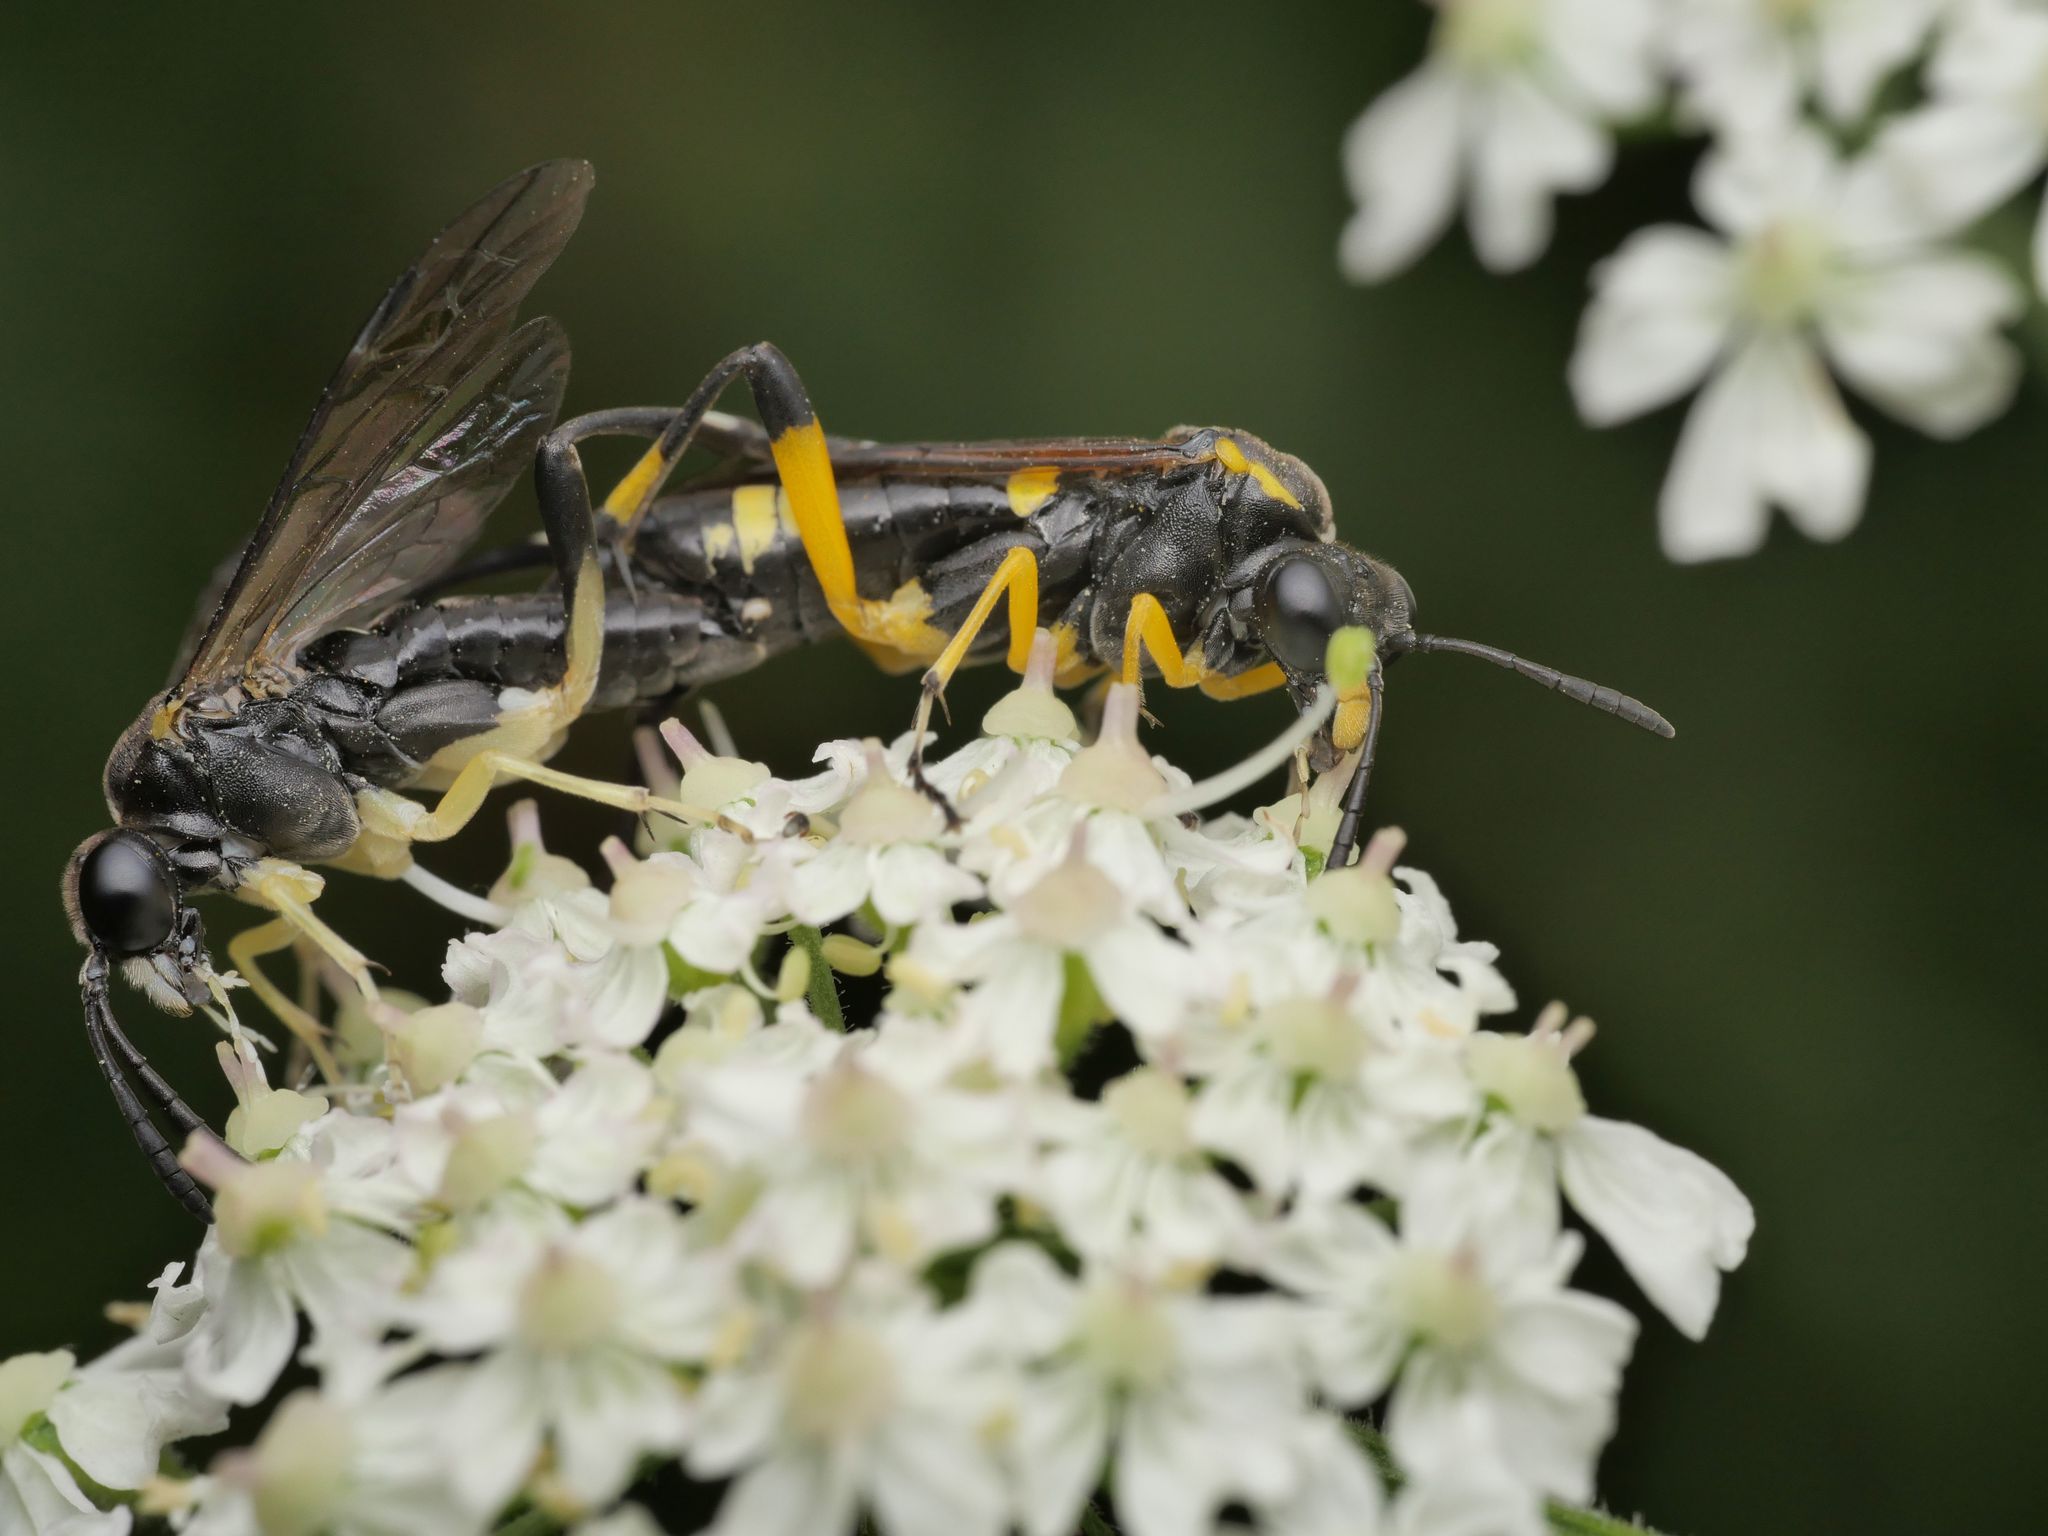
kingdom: Animalia
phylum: Arthropoda
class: Insecta
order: Hymenoptera
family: Tenthredinidae
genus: Macrophya
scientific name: Macrophya montana
